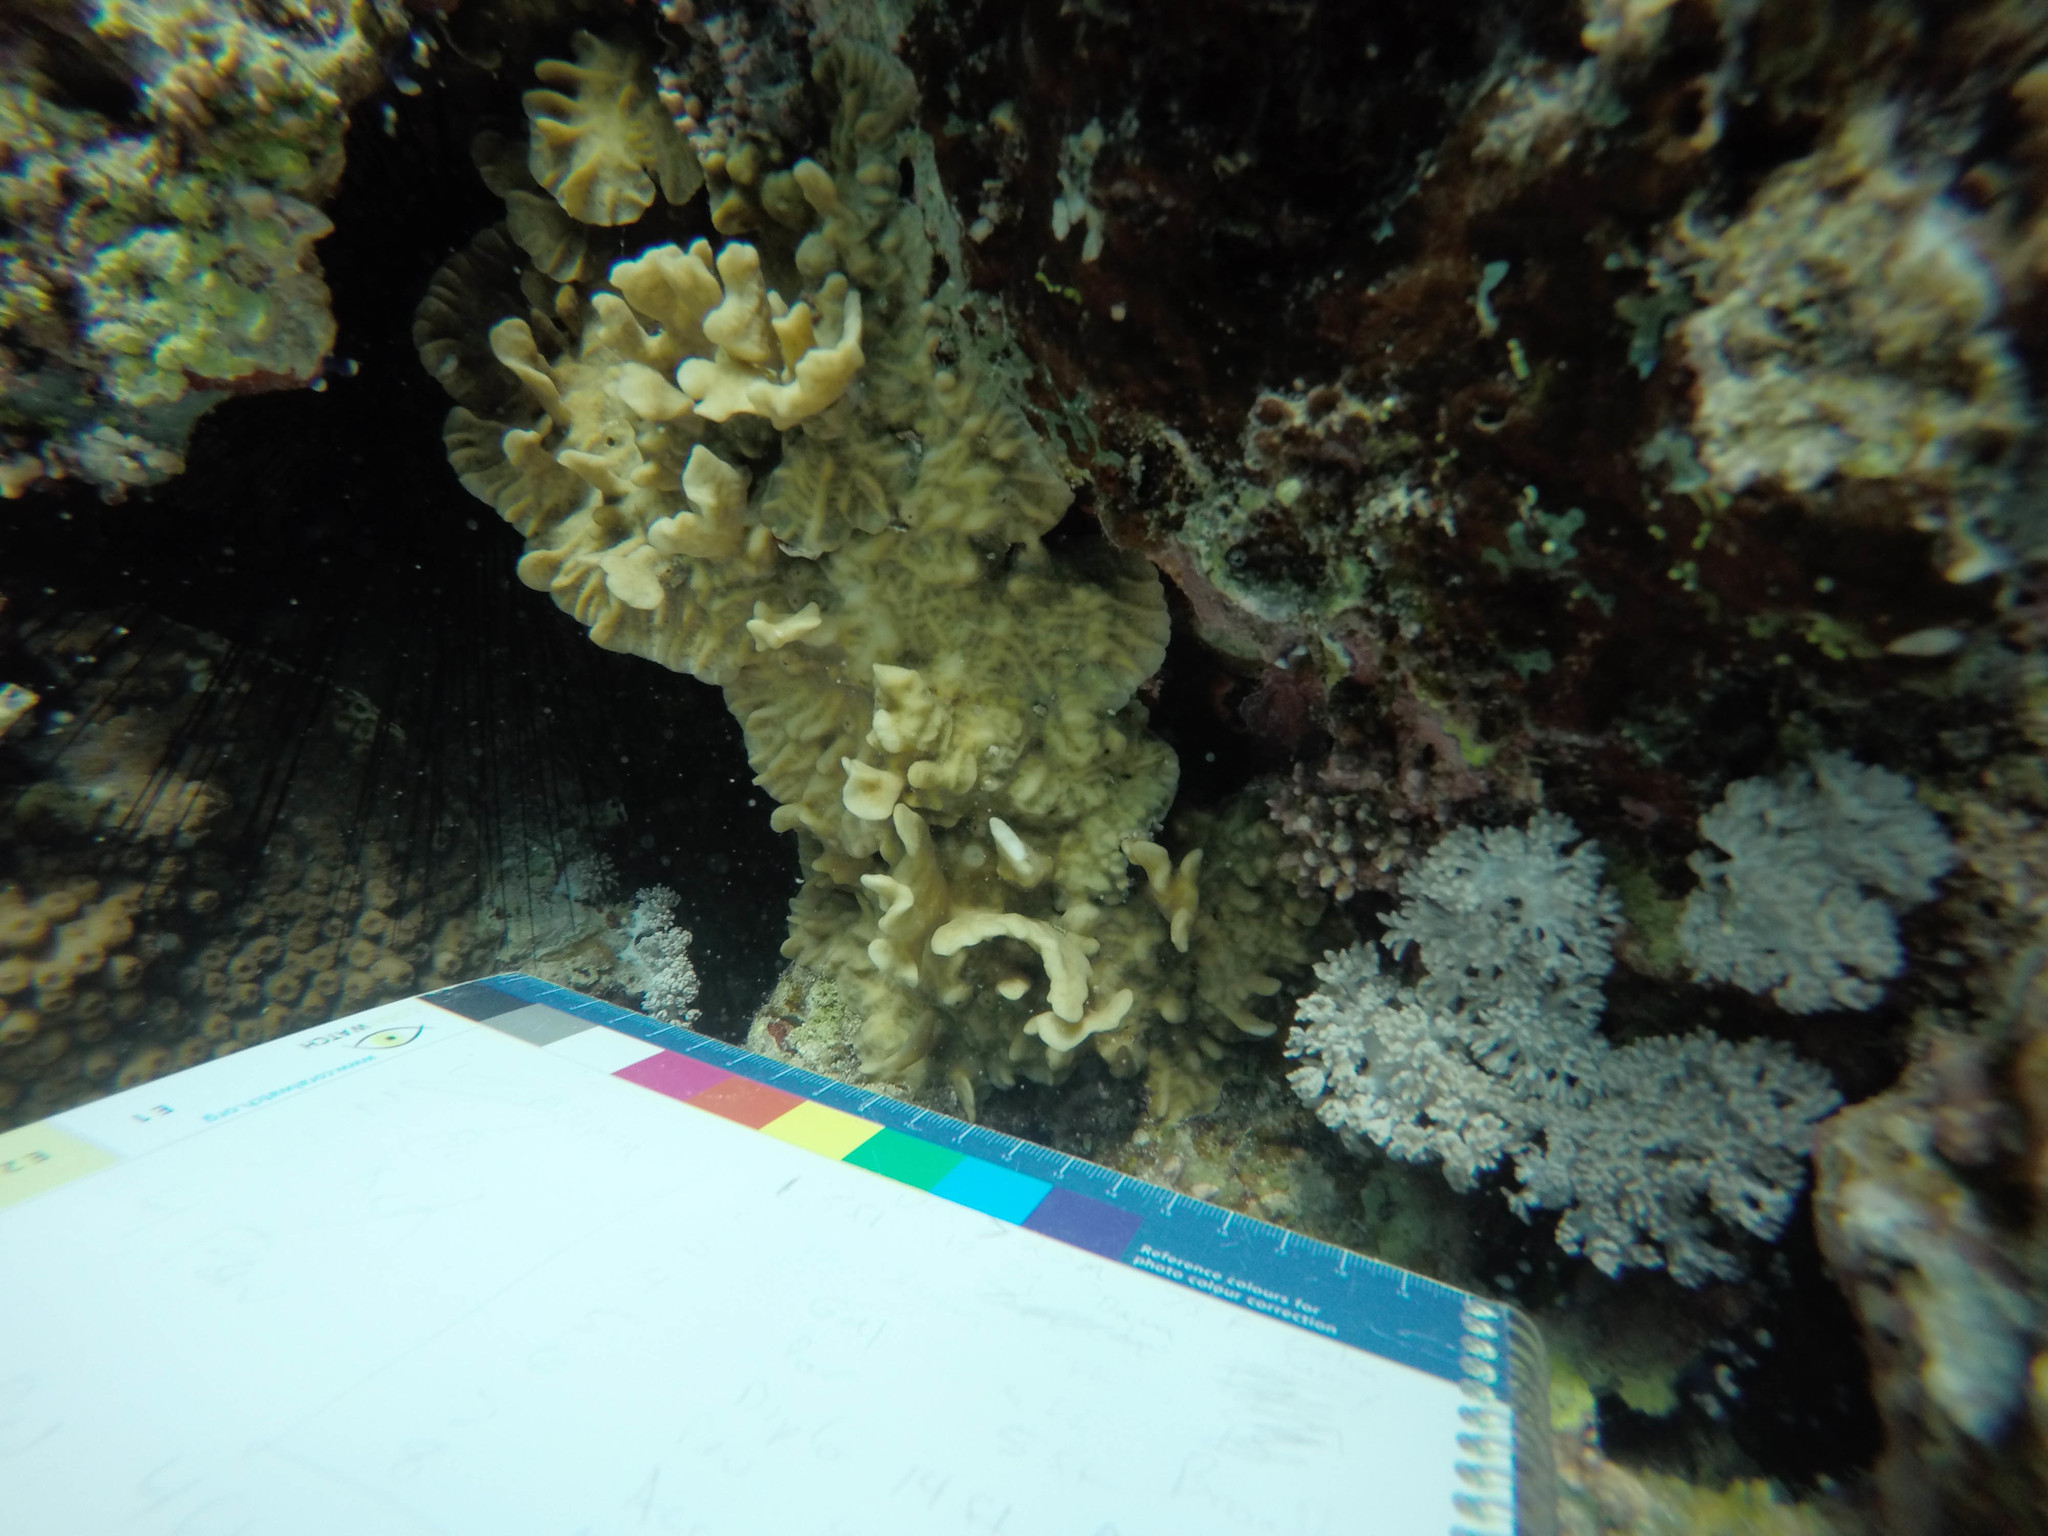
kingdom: Animalia
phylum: Cnidaria
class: Anthozoa
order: Scleractinia
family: Agariciidae
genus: Pavona
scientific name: Pavona frondifera
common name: Leaf coral
